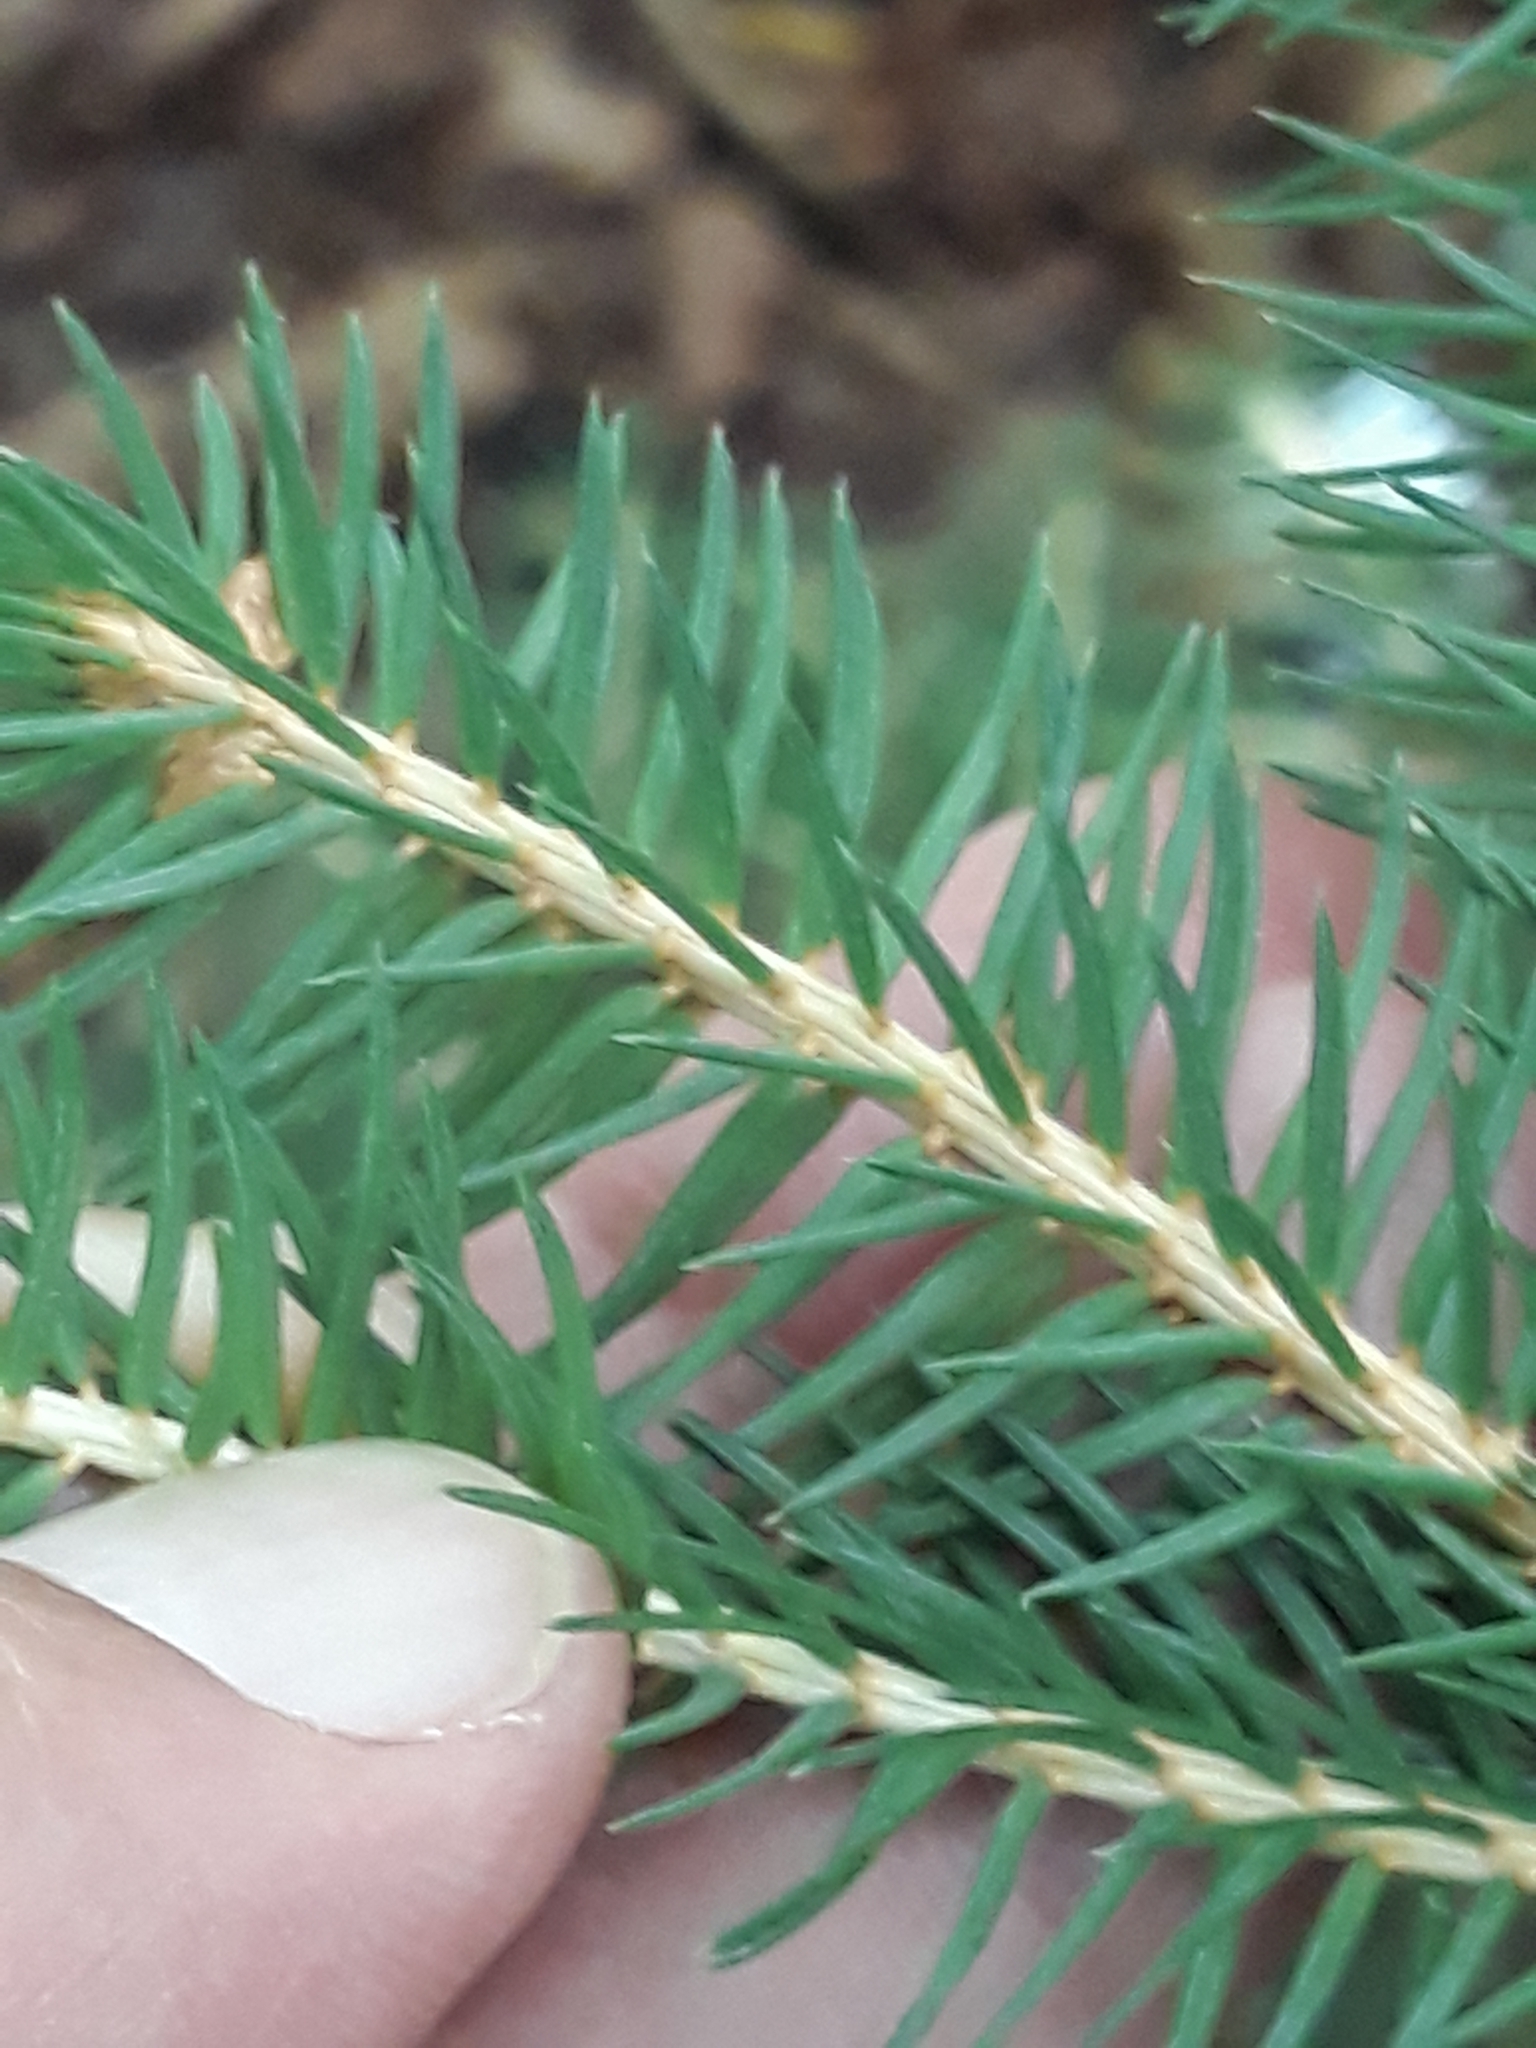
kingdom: Plantae
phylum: Tracheophyta
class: Pinopsida
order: Pinales
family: Pinaceae
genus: Picea
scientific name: Picea abies
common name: Norway spruce
